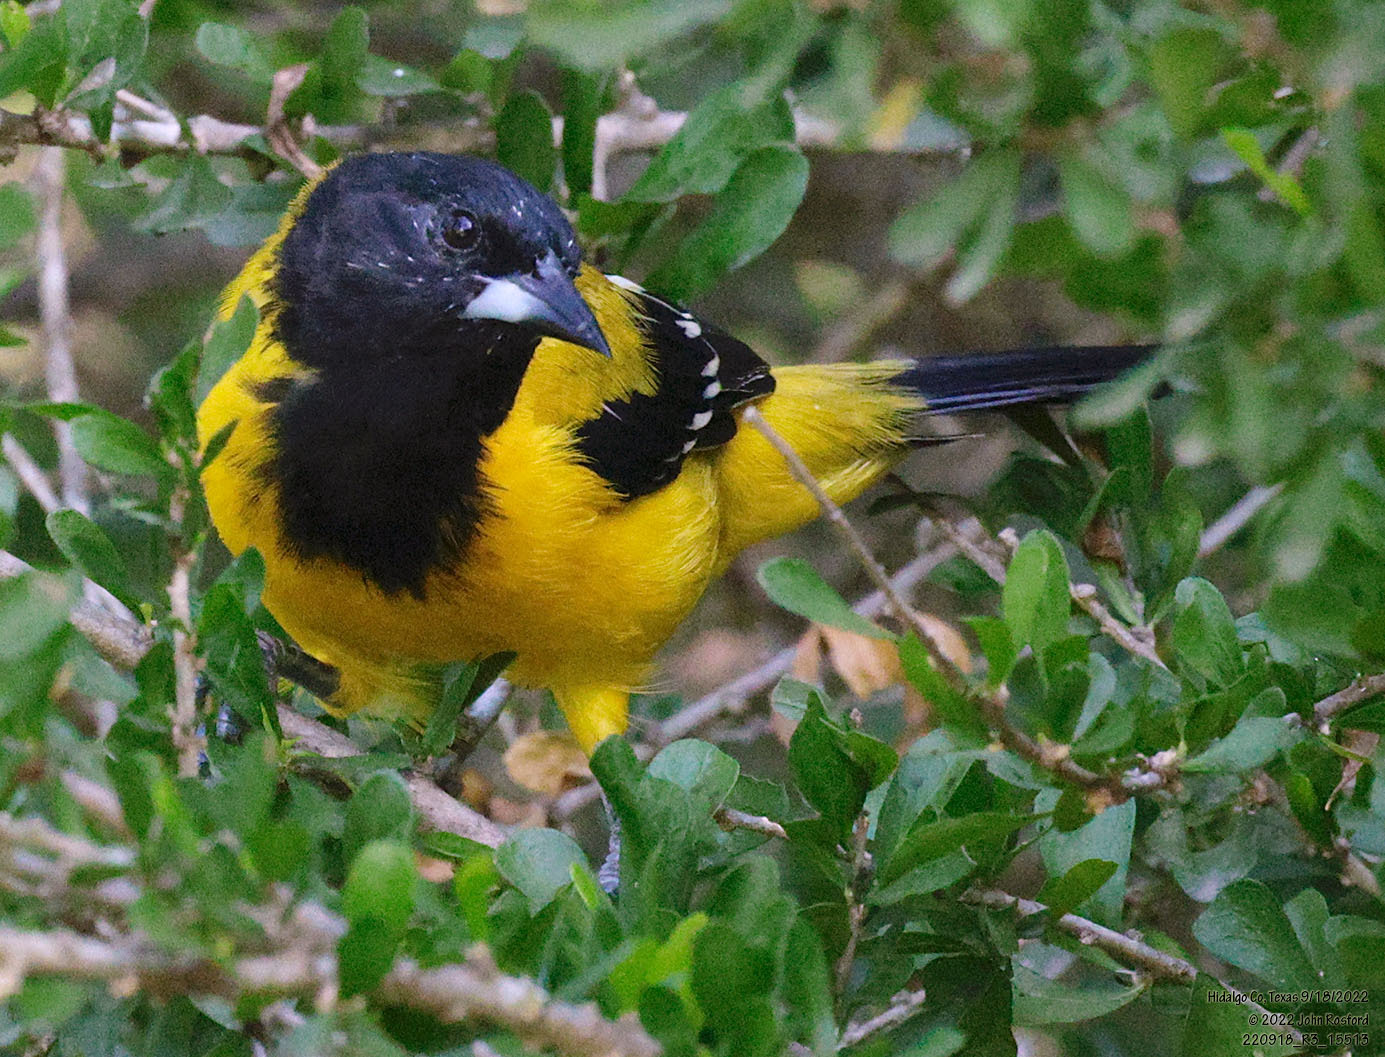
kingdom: Animalia
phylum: Chordata
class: Aves
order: Passeriformes
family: Icteridae
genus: Icterus
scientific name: Icterus graduacauda
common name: Audubon's oriole
